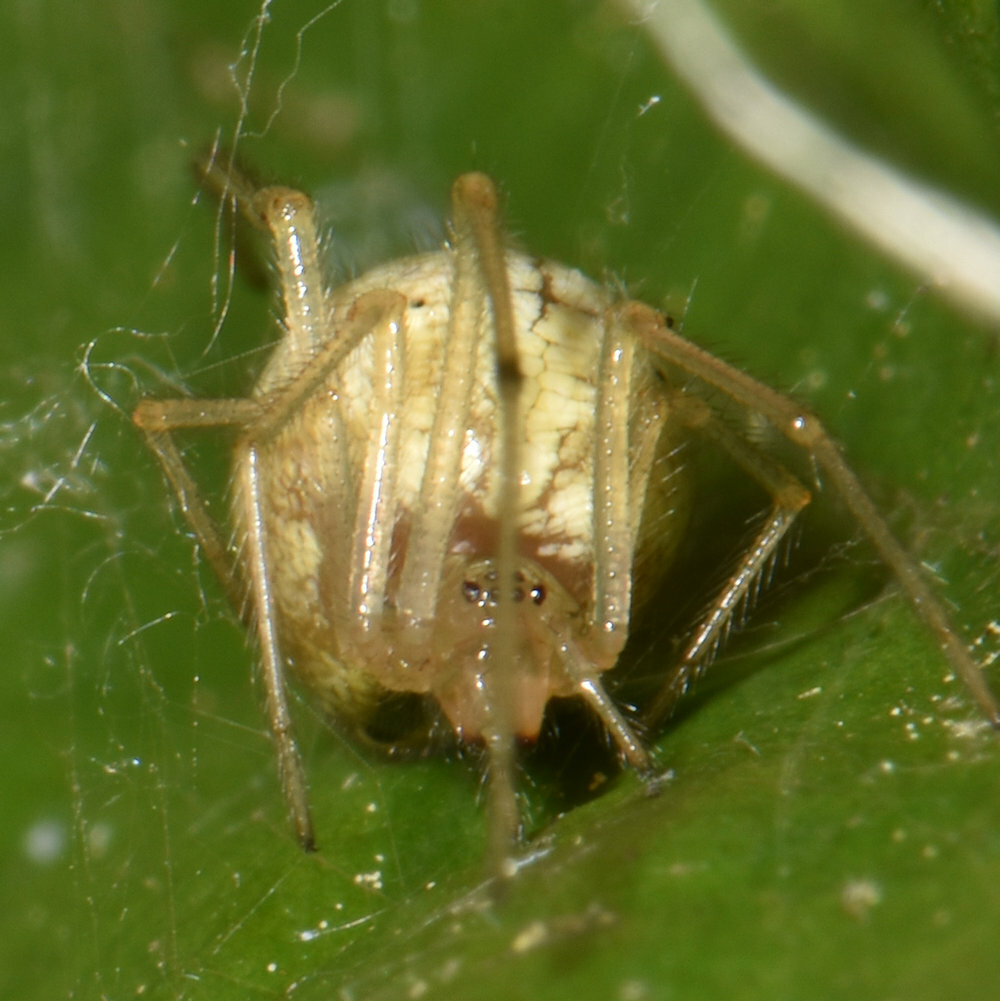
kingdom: Animalia
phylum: Arthropoda
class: Arachnida
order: Araneae
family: Theridiidae
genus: Enoplognatha
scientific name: Enoplognatha ovata
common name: Common candy-striped spider
